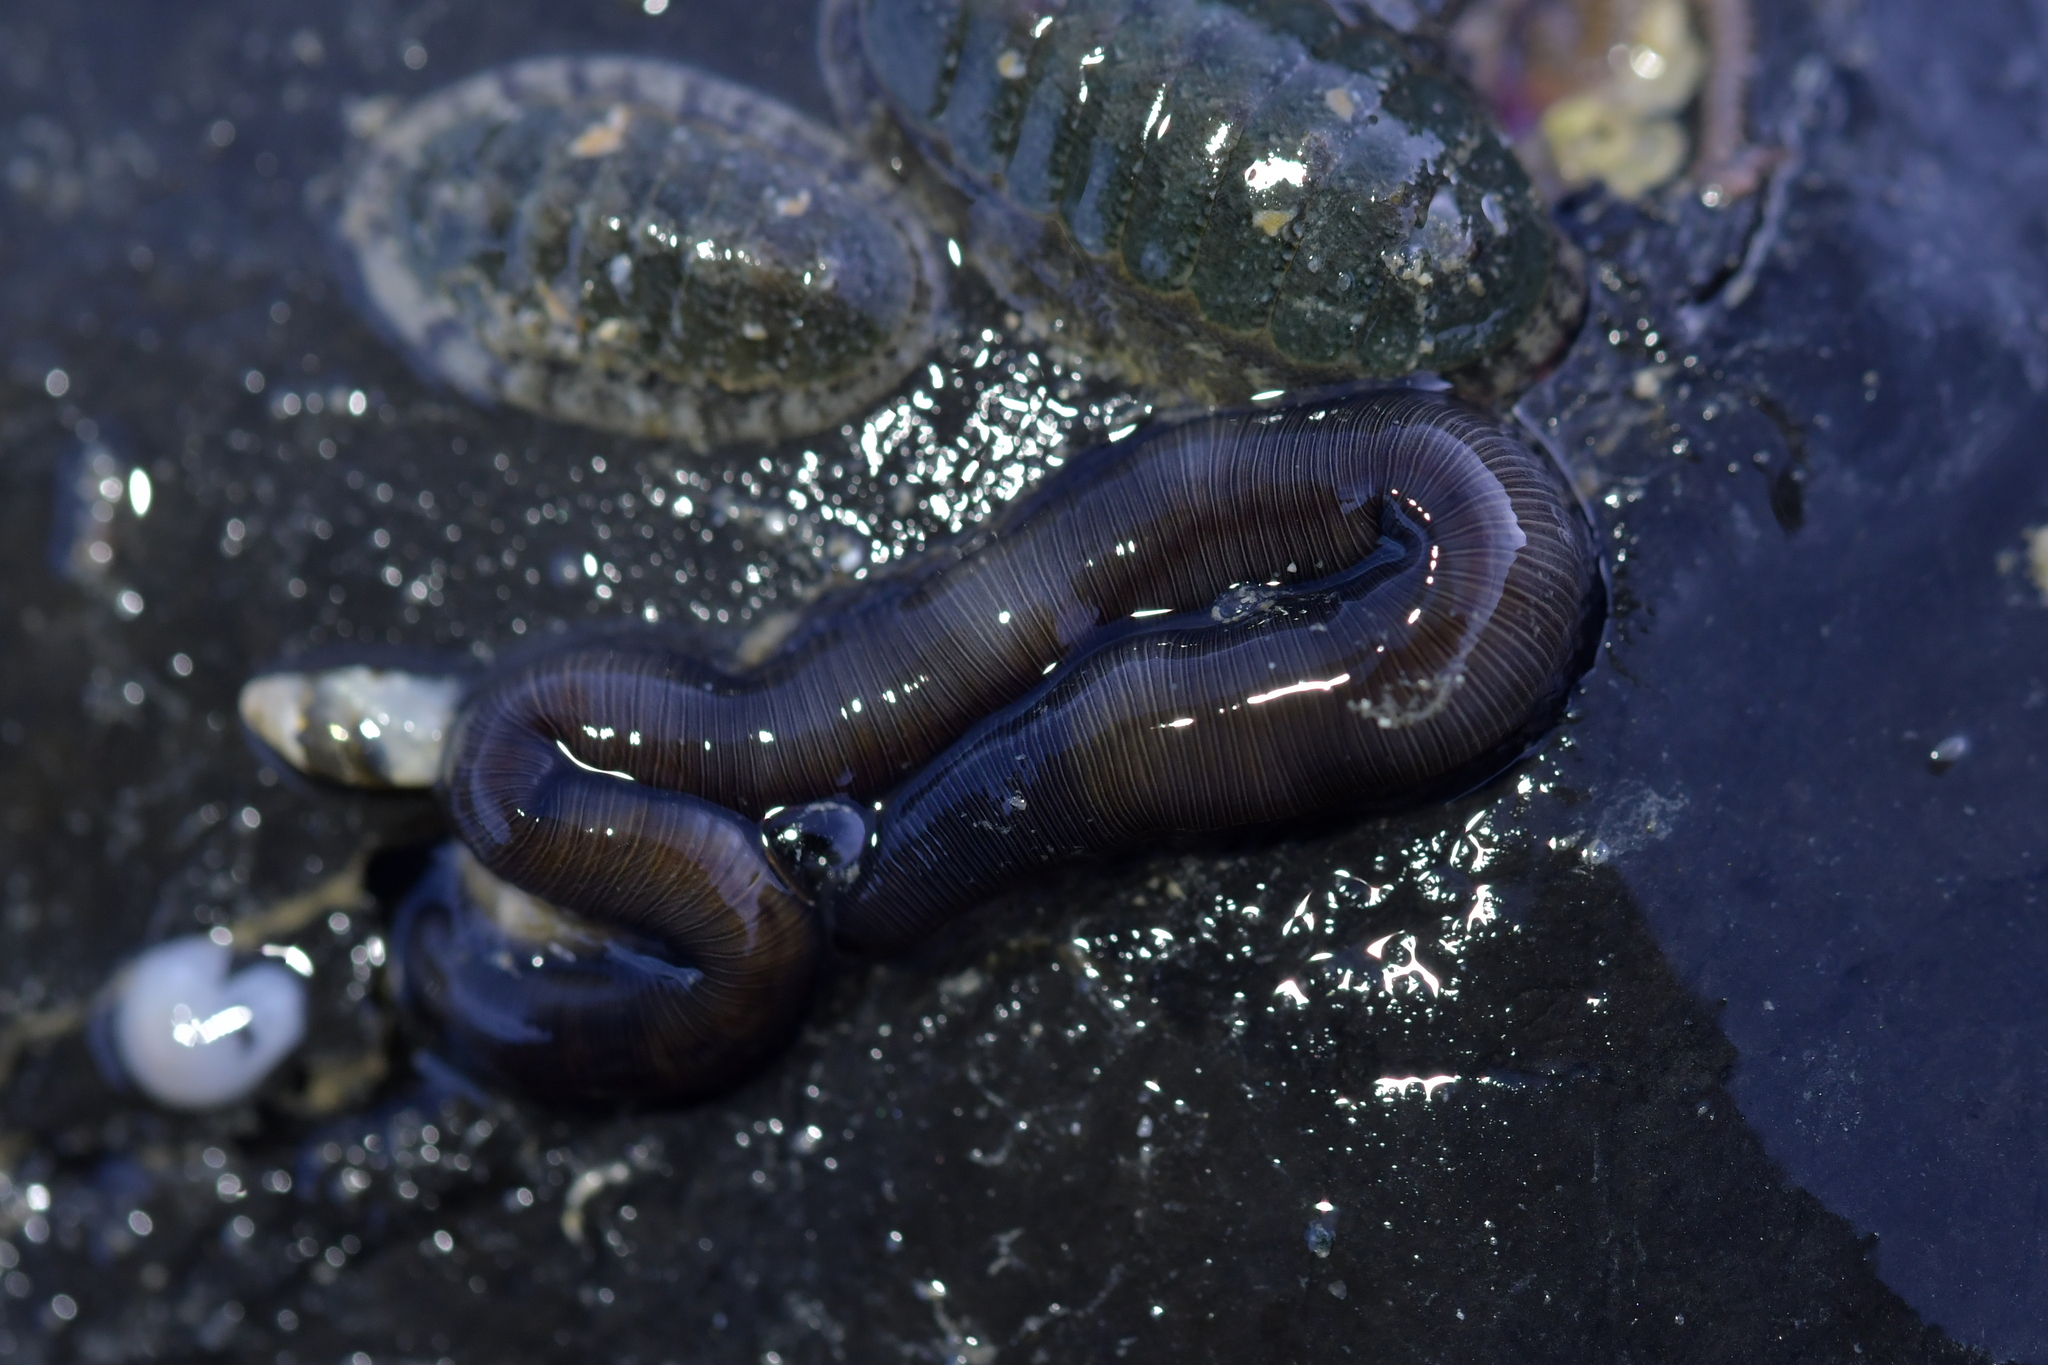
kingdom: Animalia
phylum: Annelida
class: Polychaeta
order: Phyllodocida
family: Syllidae
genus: Odontosyllis
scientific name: Odontosyllis polycera
